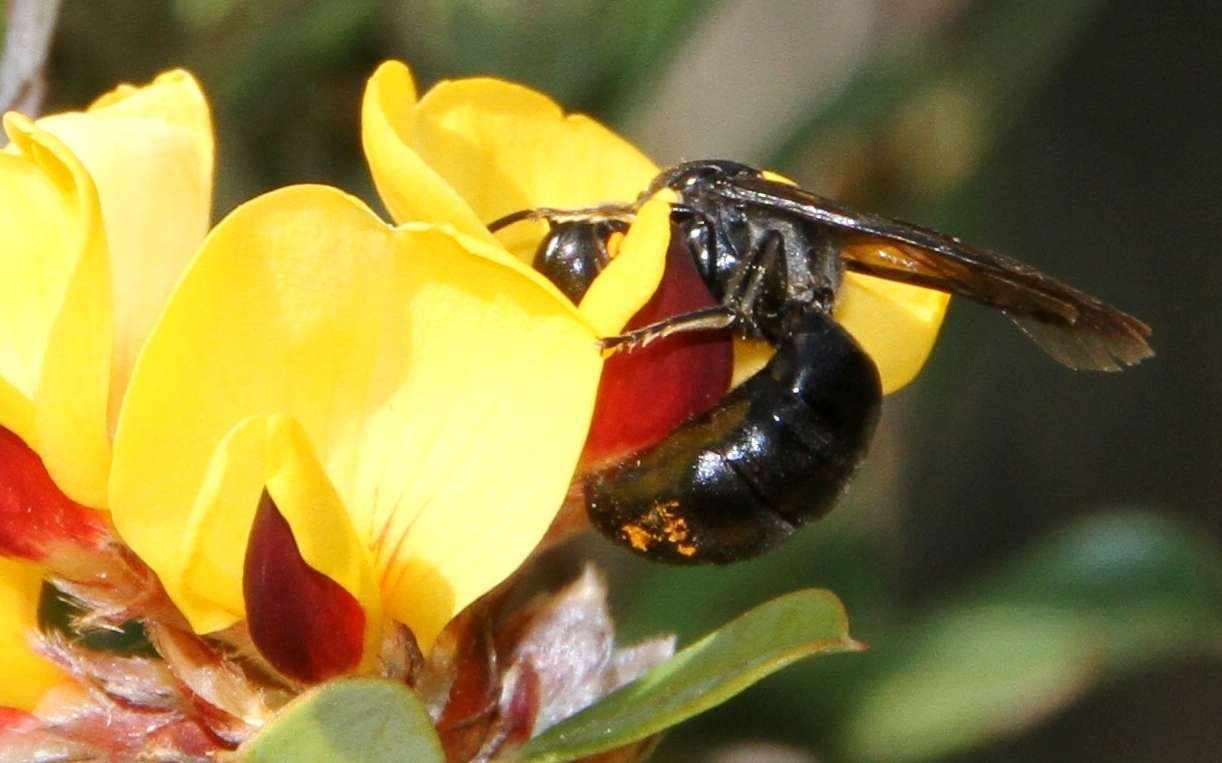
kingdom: Animalia
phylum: Arthropoda
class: Insecta
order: Hymenoptera
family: Colletidae
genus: Amphylaeus
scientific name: Amphylaeus morosus
